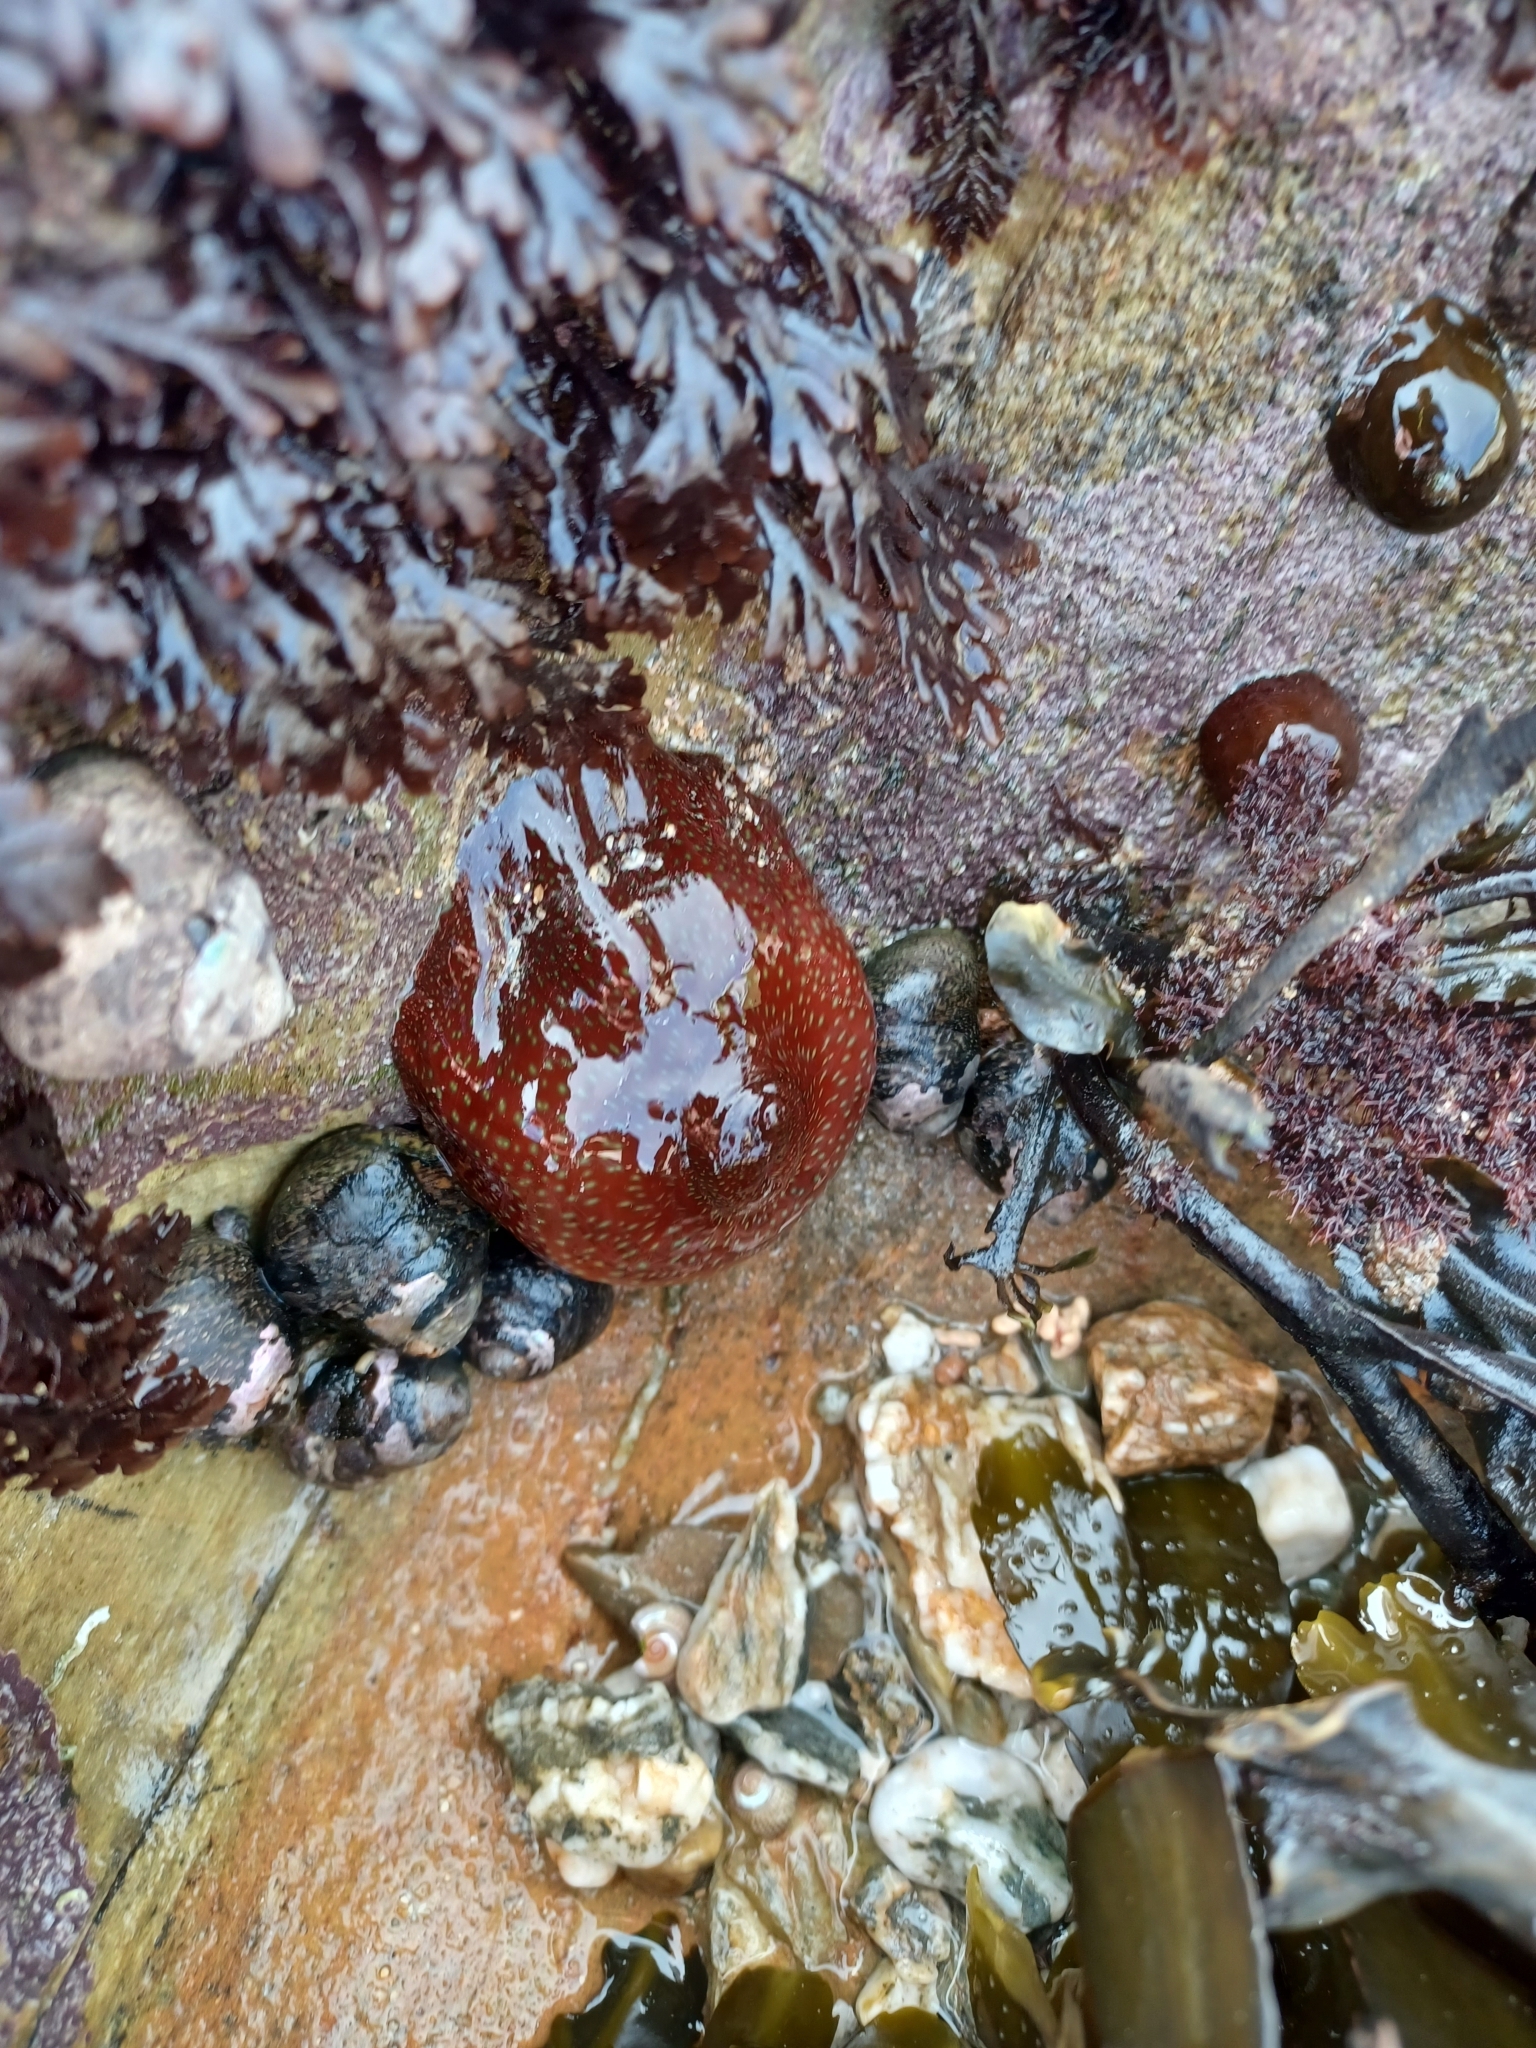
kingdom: Animalia
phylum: Cnidaria
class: Anthozoa
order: Actiniaria
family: Actiniidae
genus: Actinia
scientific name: Actinia fragacea
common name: Strawberry anemone
